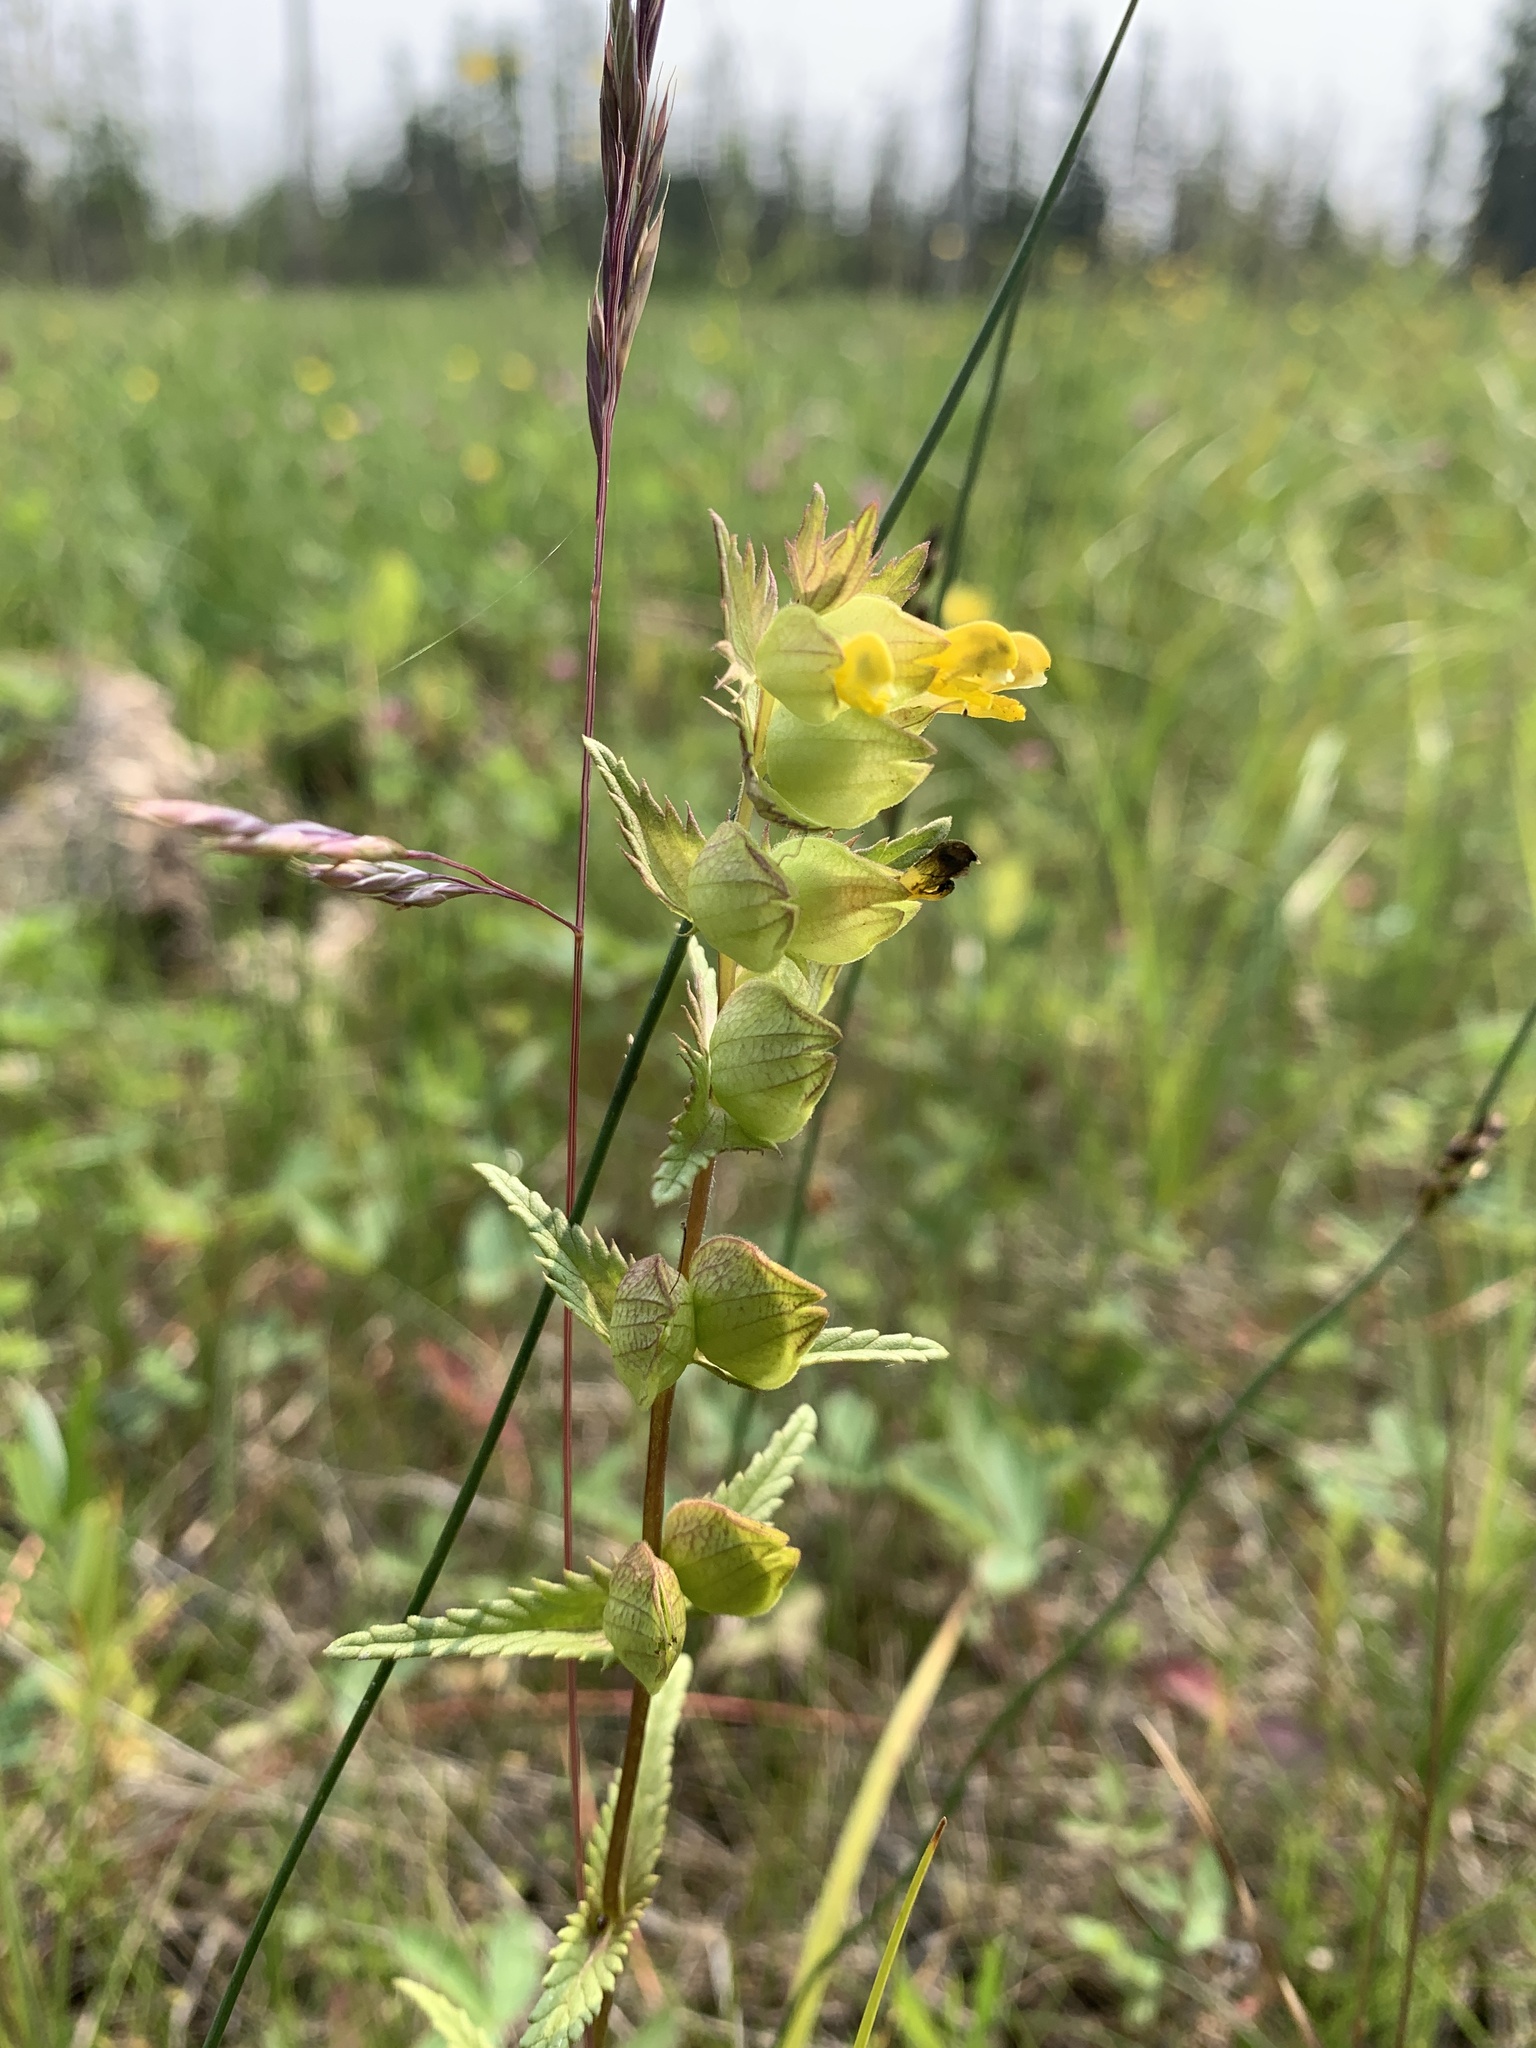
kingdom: Plantae
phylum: Tracheophyta
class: Magnoliopsida
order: Lamiales
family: Orobanchaceae
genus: Rhinanthus
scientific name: Rhinanthus groenlandicus
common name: Little yellow rattle
